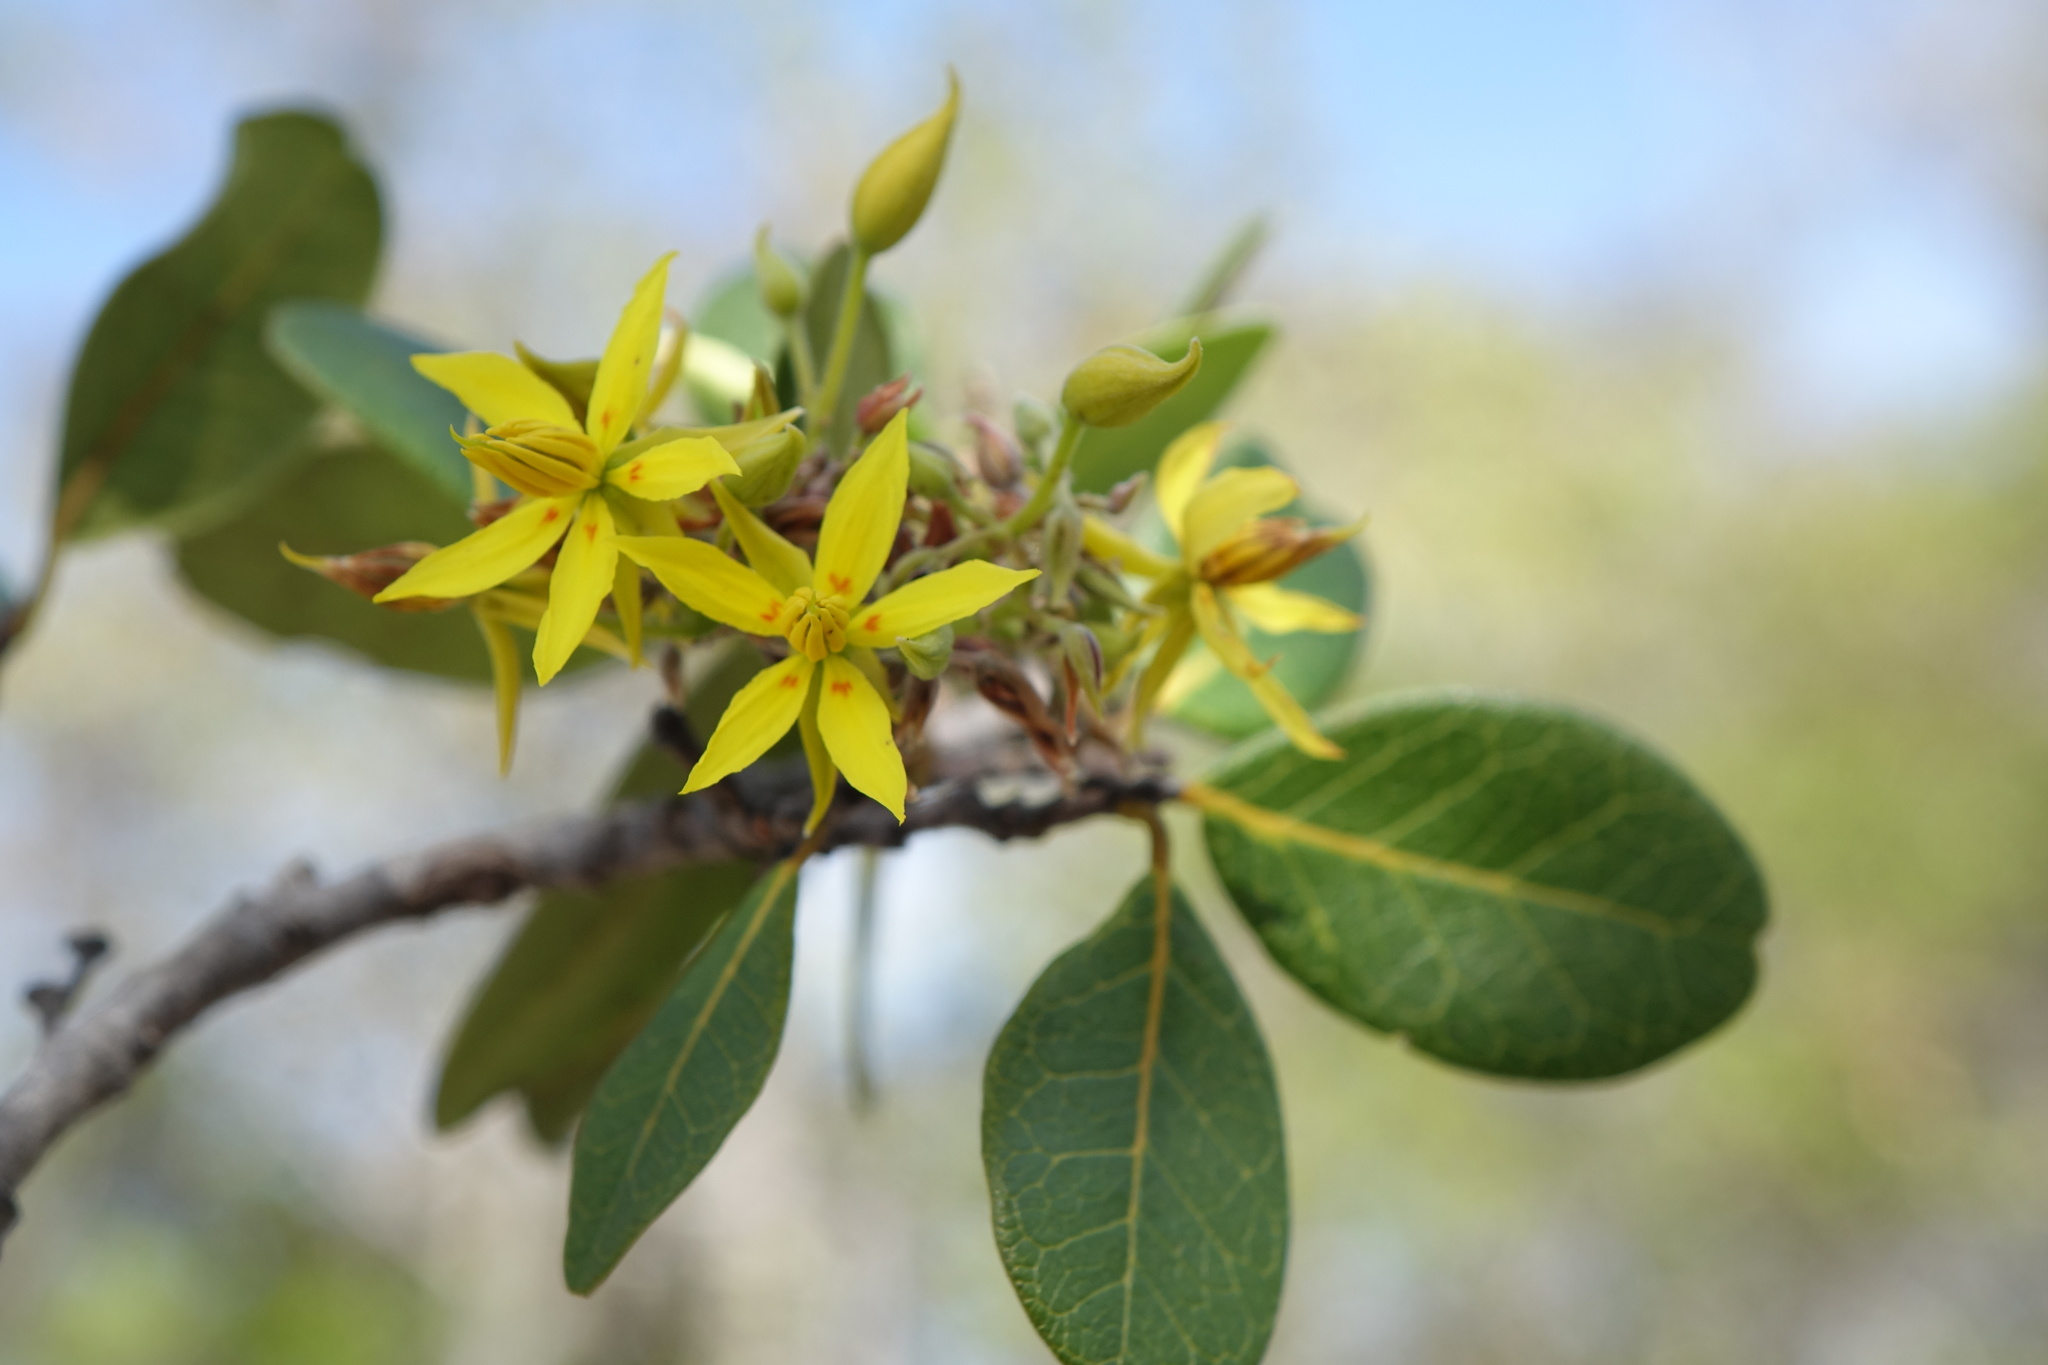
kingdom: Plantae
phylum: Tracheophyta
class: Magnoliopsida
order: Fabales
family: Fabaceae
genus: Baudouinia
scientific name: Baudouinia fluggeiformis
